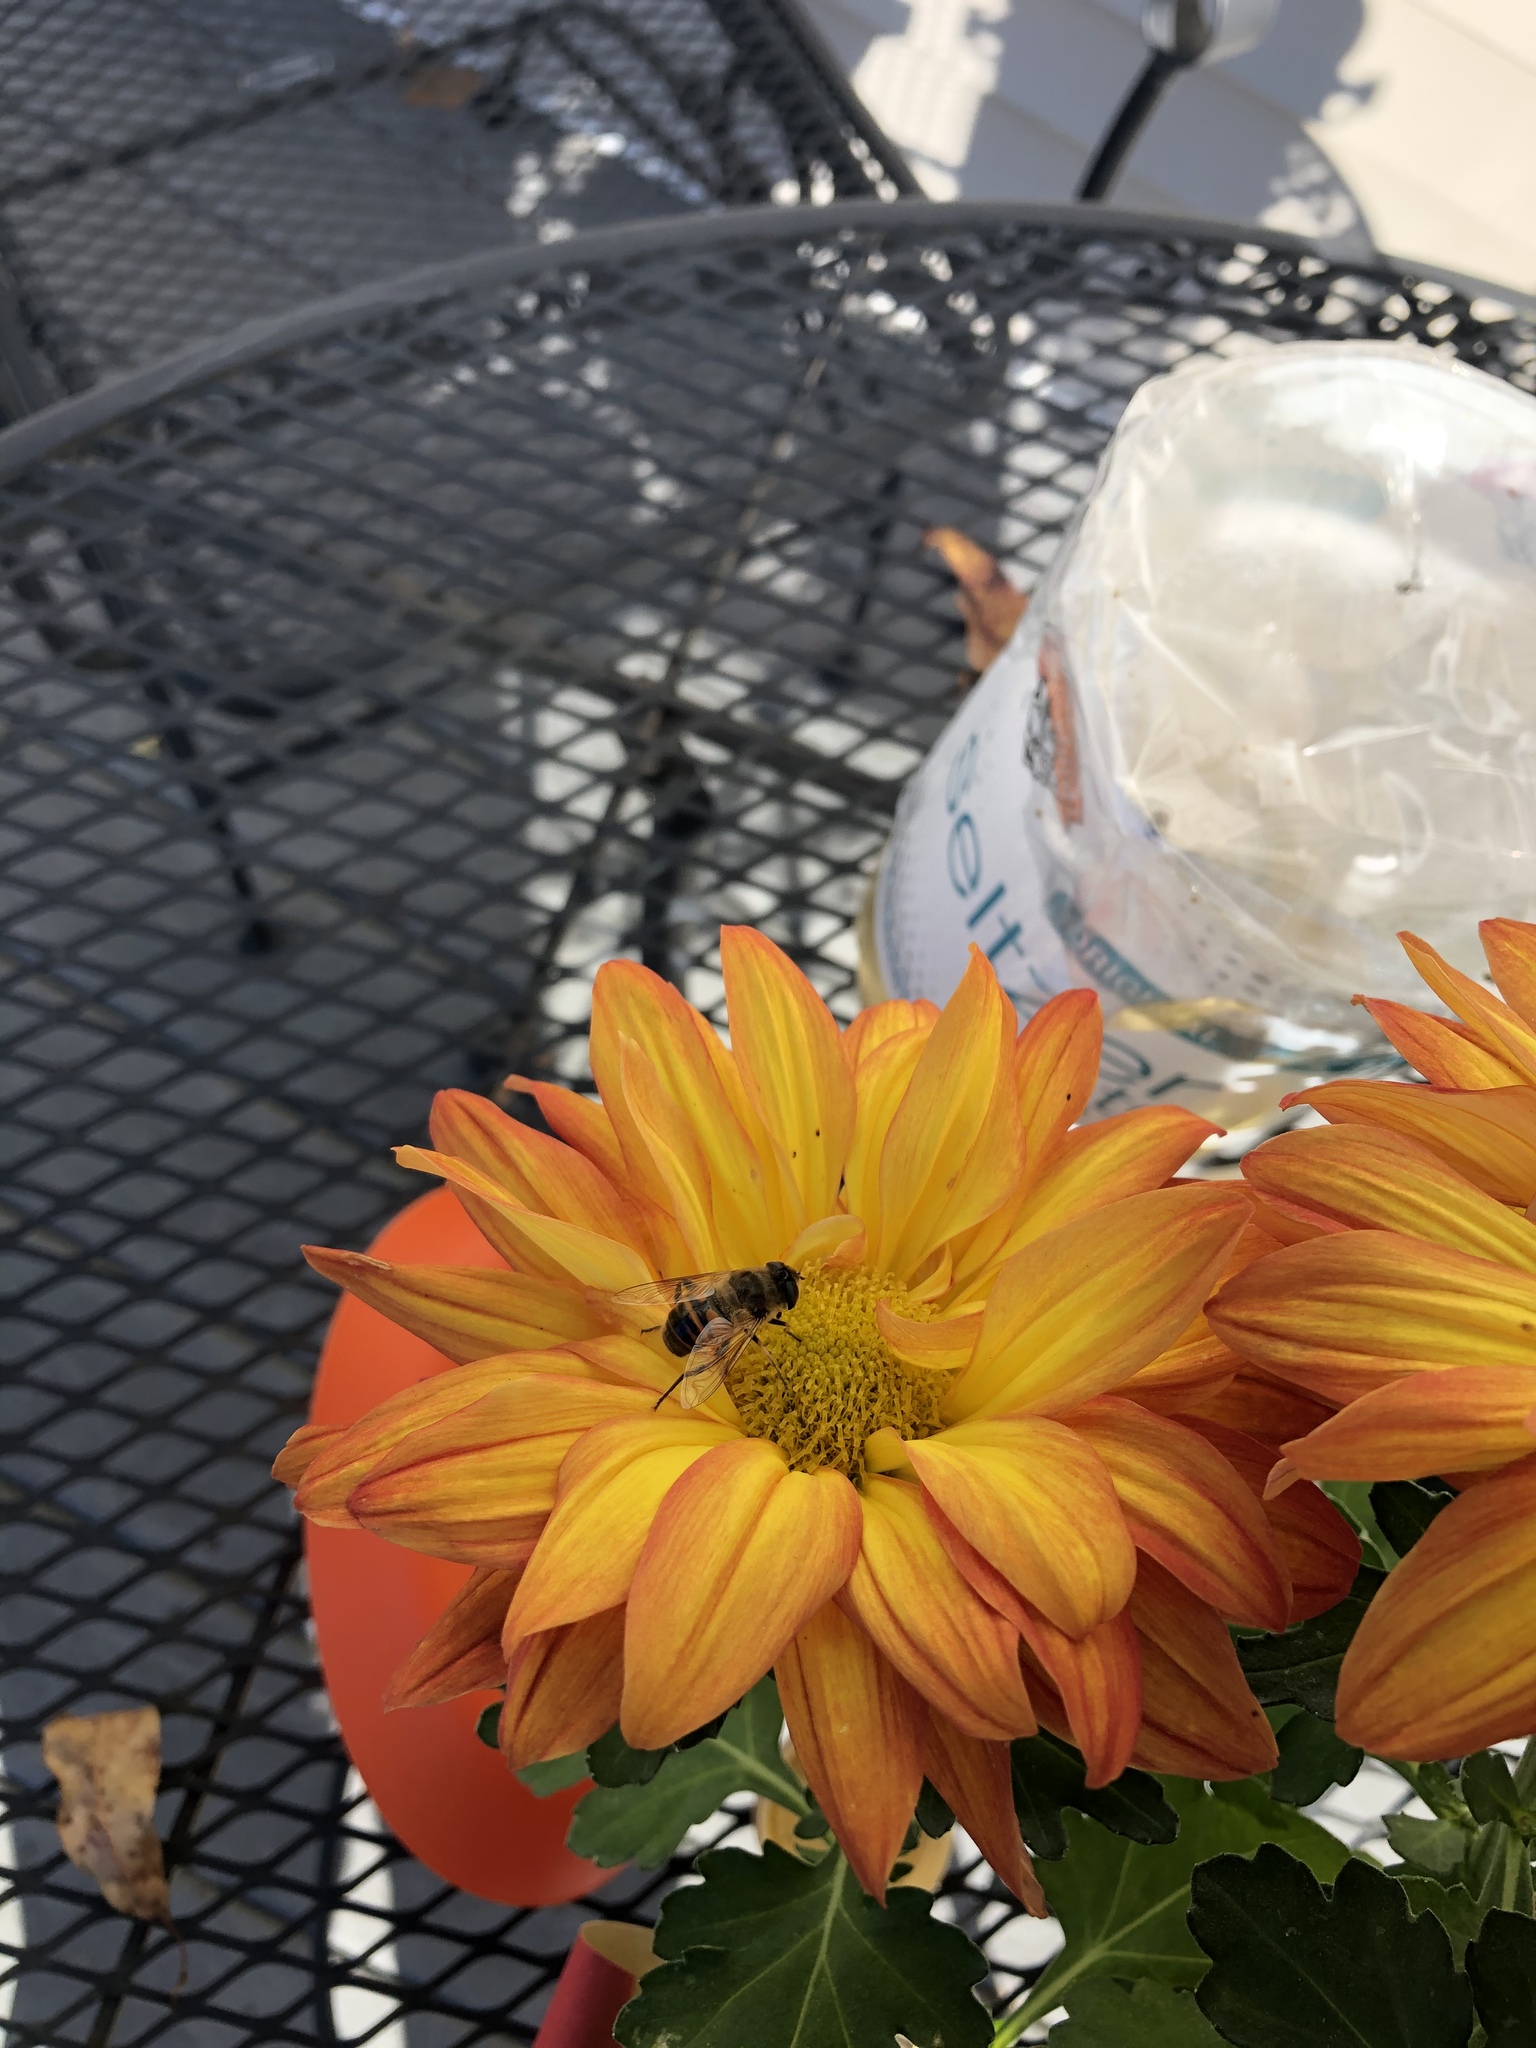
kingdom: Animalia
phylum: Arthropoda
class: Insecta
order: Diptera
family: Syrphidae
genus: Eristalis
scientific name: Eristalis tenax
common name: Drone fly
